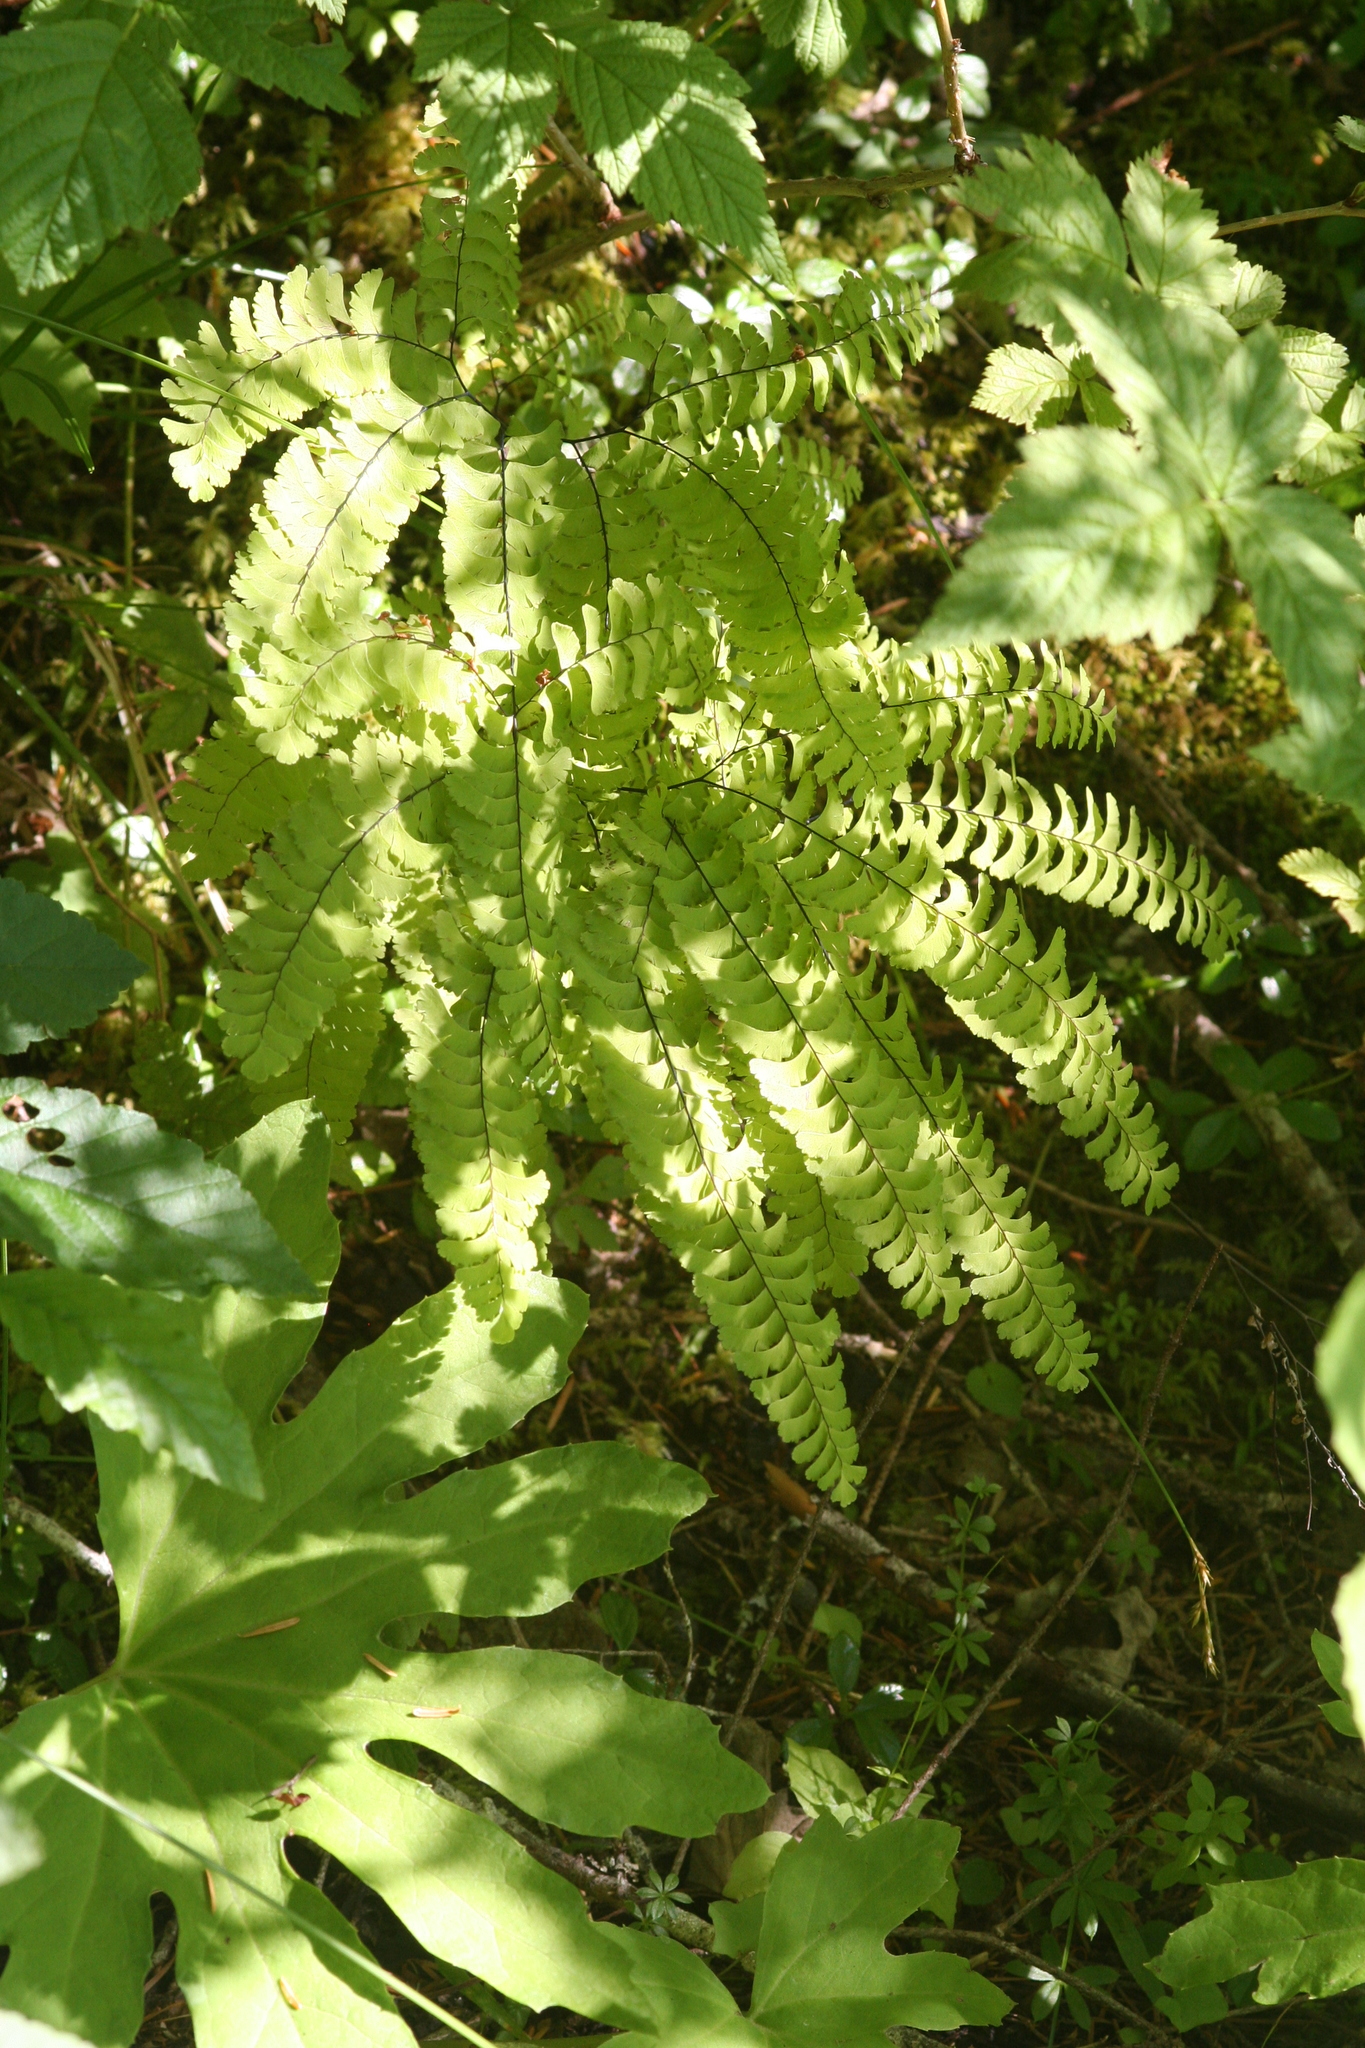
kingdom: Plantae
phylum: Tracheophyta
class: Polypodiopsida
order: Polypodiales
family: Pteridaceae
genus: Adiantum
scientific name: Adiantum aleuticum
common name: Aleutian maidenhair fern
